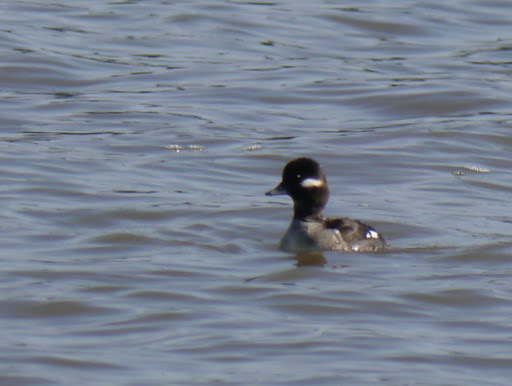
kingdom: Animalia
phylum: Chordata
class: Aves
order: Anseriformes
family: Anatidae
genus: Bucephala
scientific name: Bucephala albeola
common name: Bufflehead
